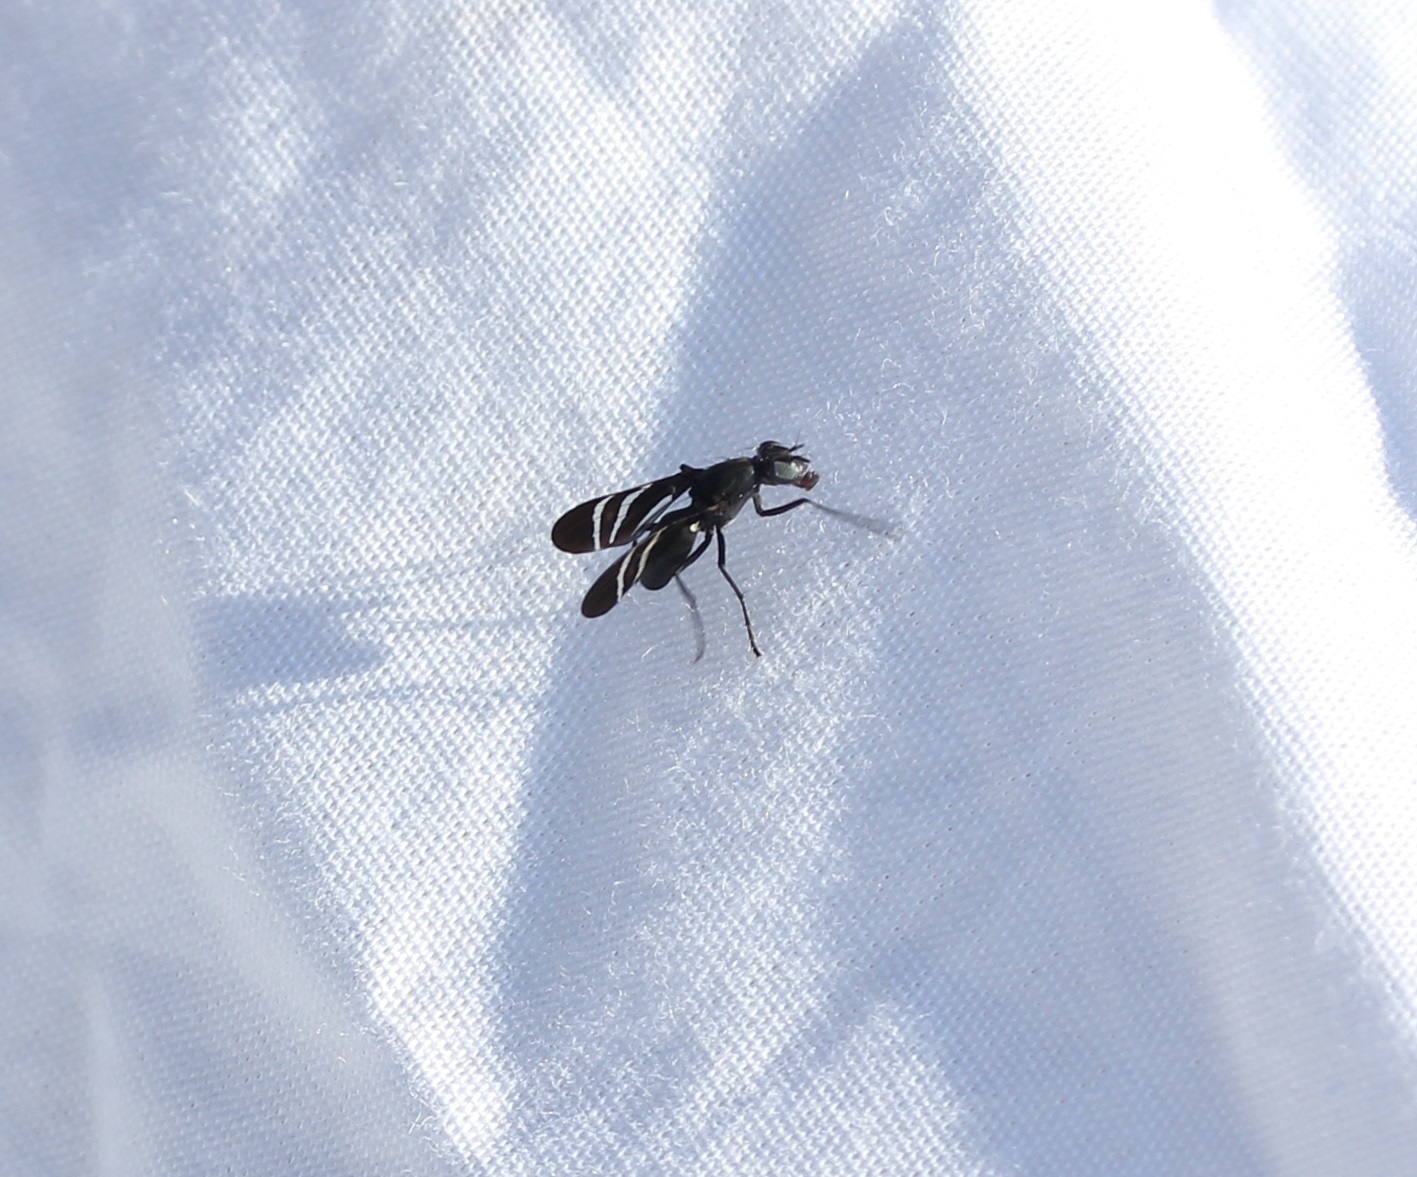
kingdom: Animalia
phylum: Arthropoda
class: Insecta
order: Diptera
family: Ulidiidae
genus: Tritoxa
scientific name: Tritoxa flexa
